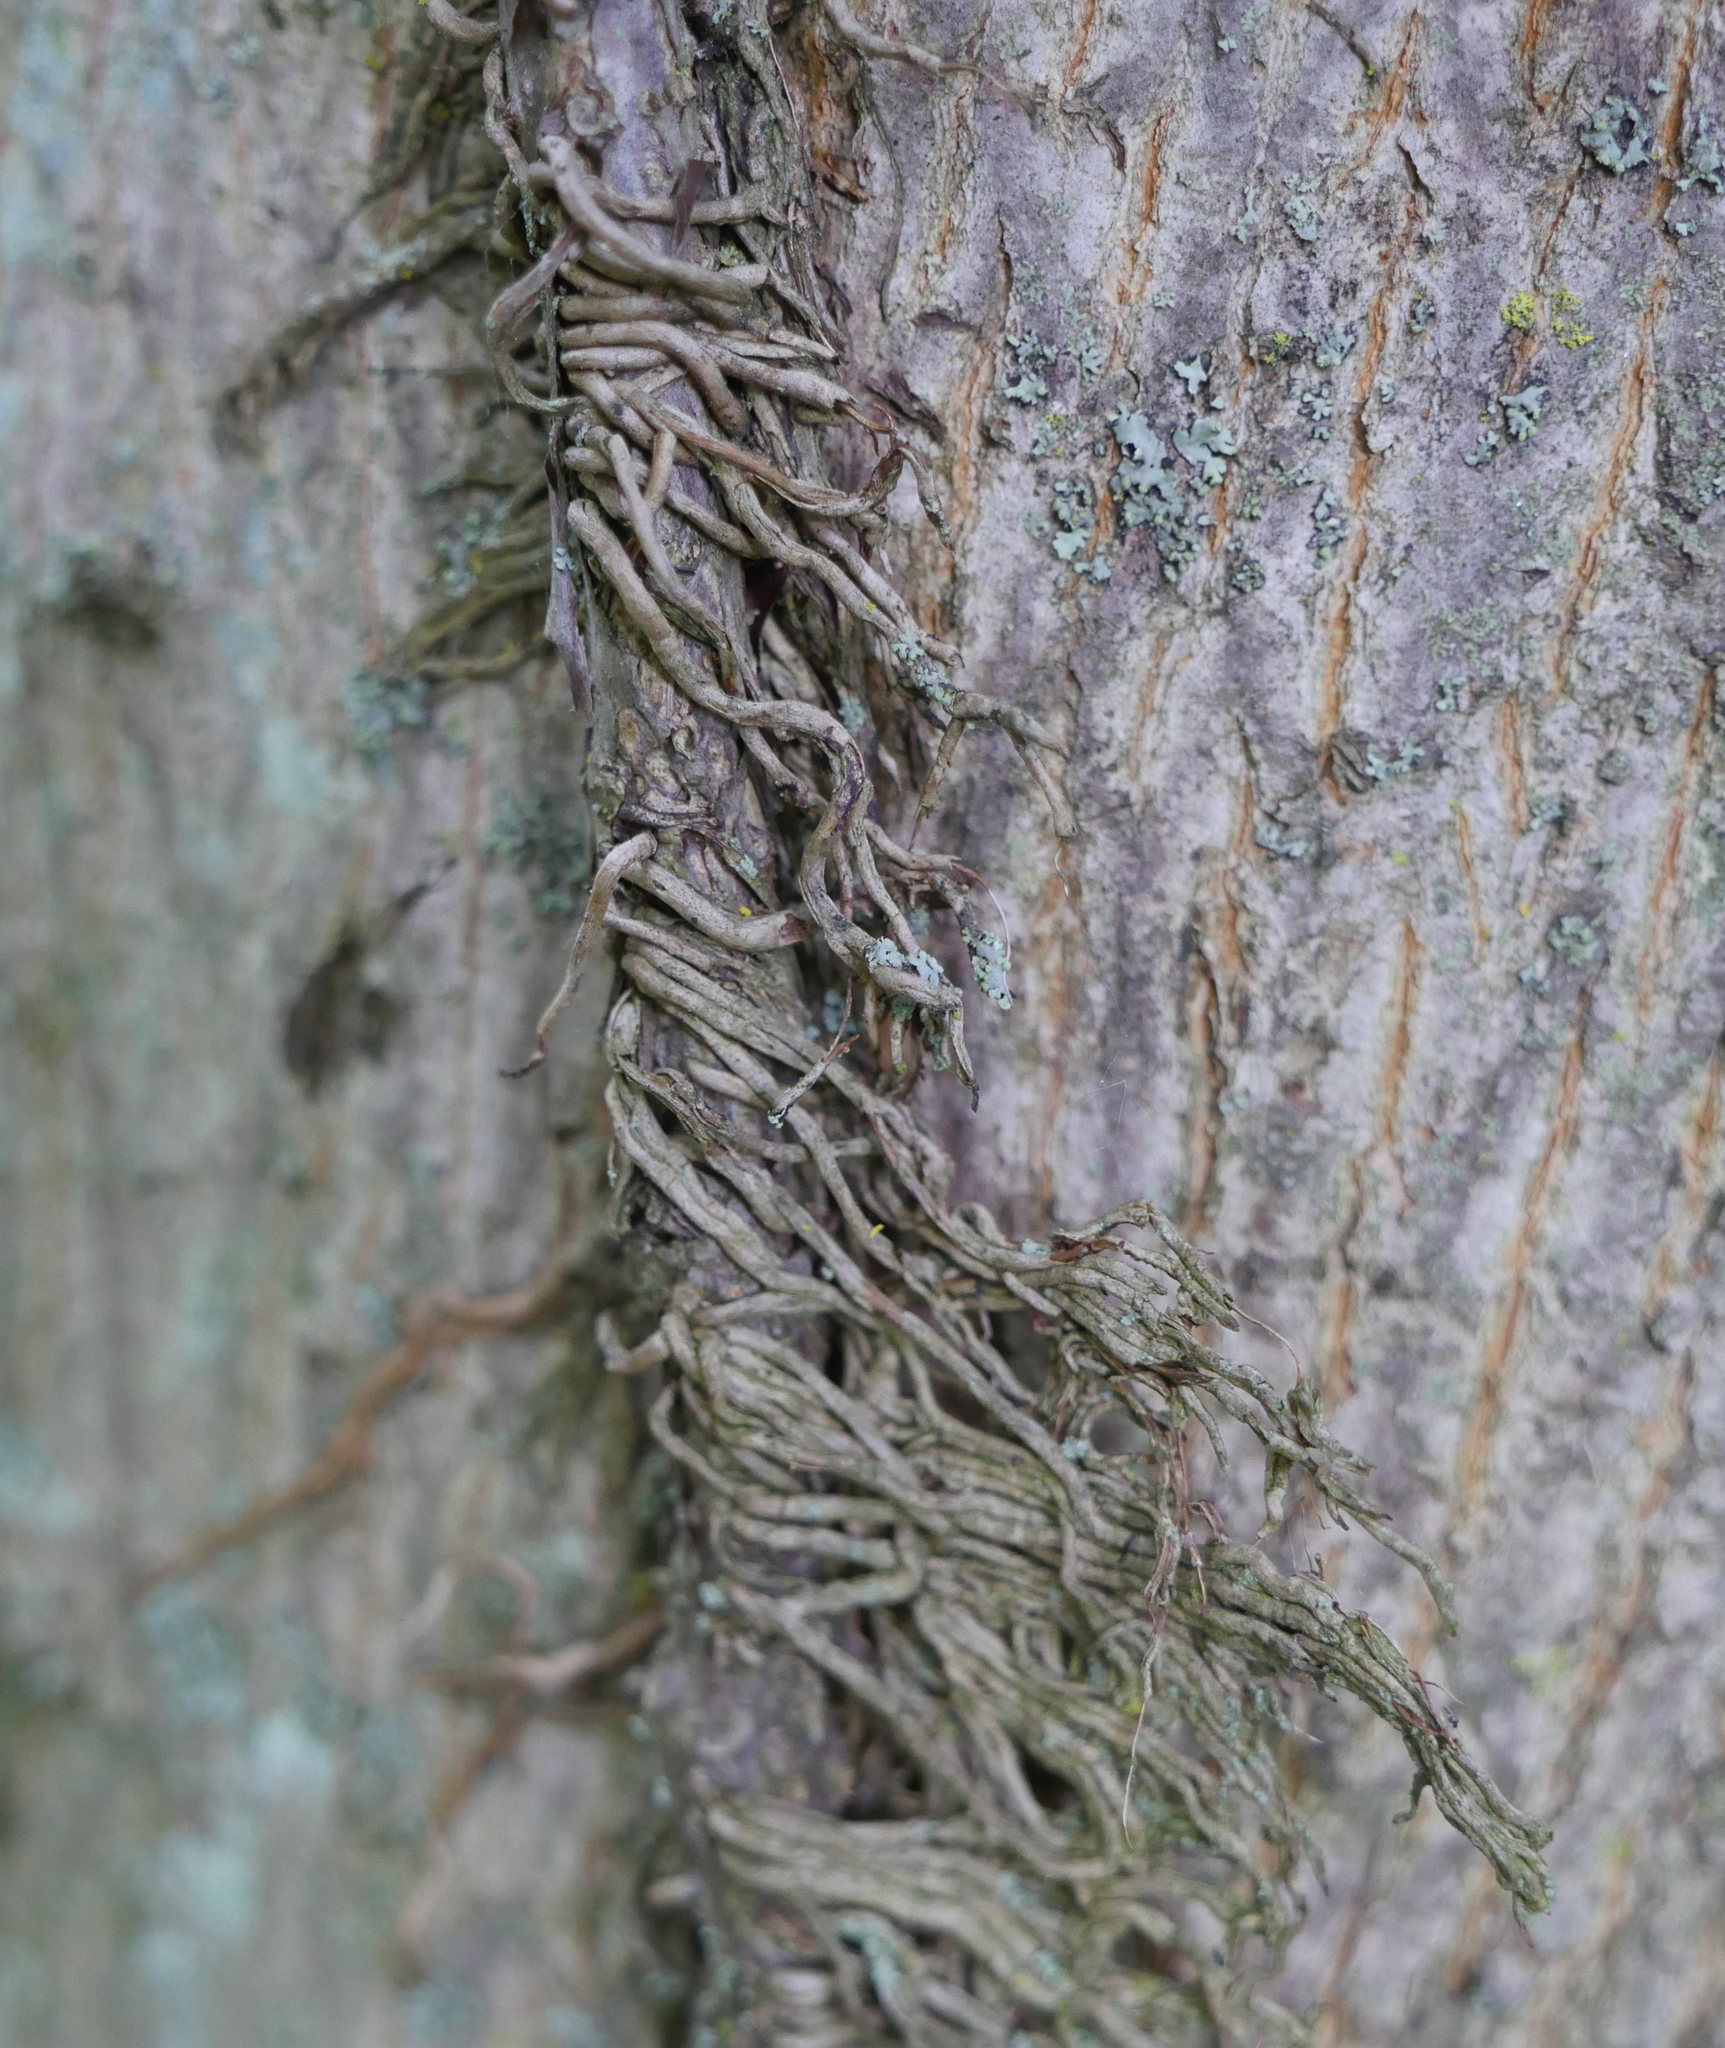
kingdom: Plantae
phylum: Tracheophyta
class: Magnoliopsida
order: Vitales
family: Vitaceae
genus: Parthenocissus
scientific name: Parthenocissus quinquefolia
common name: Virginia-creeper
